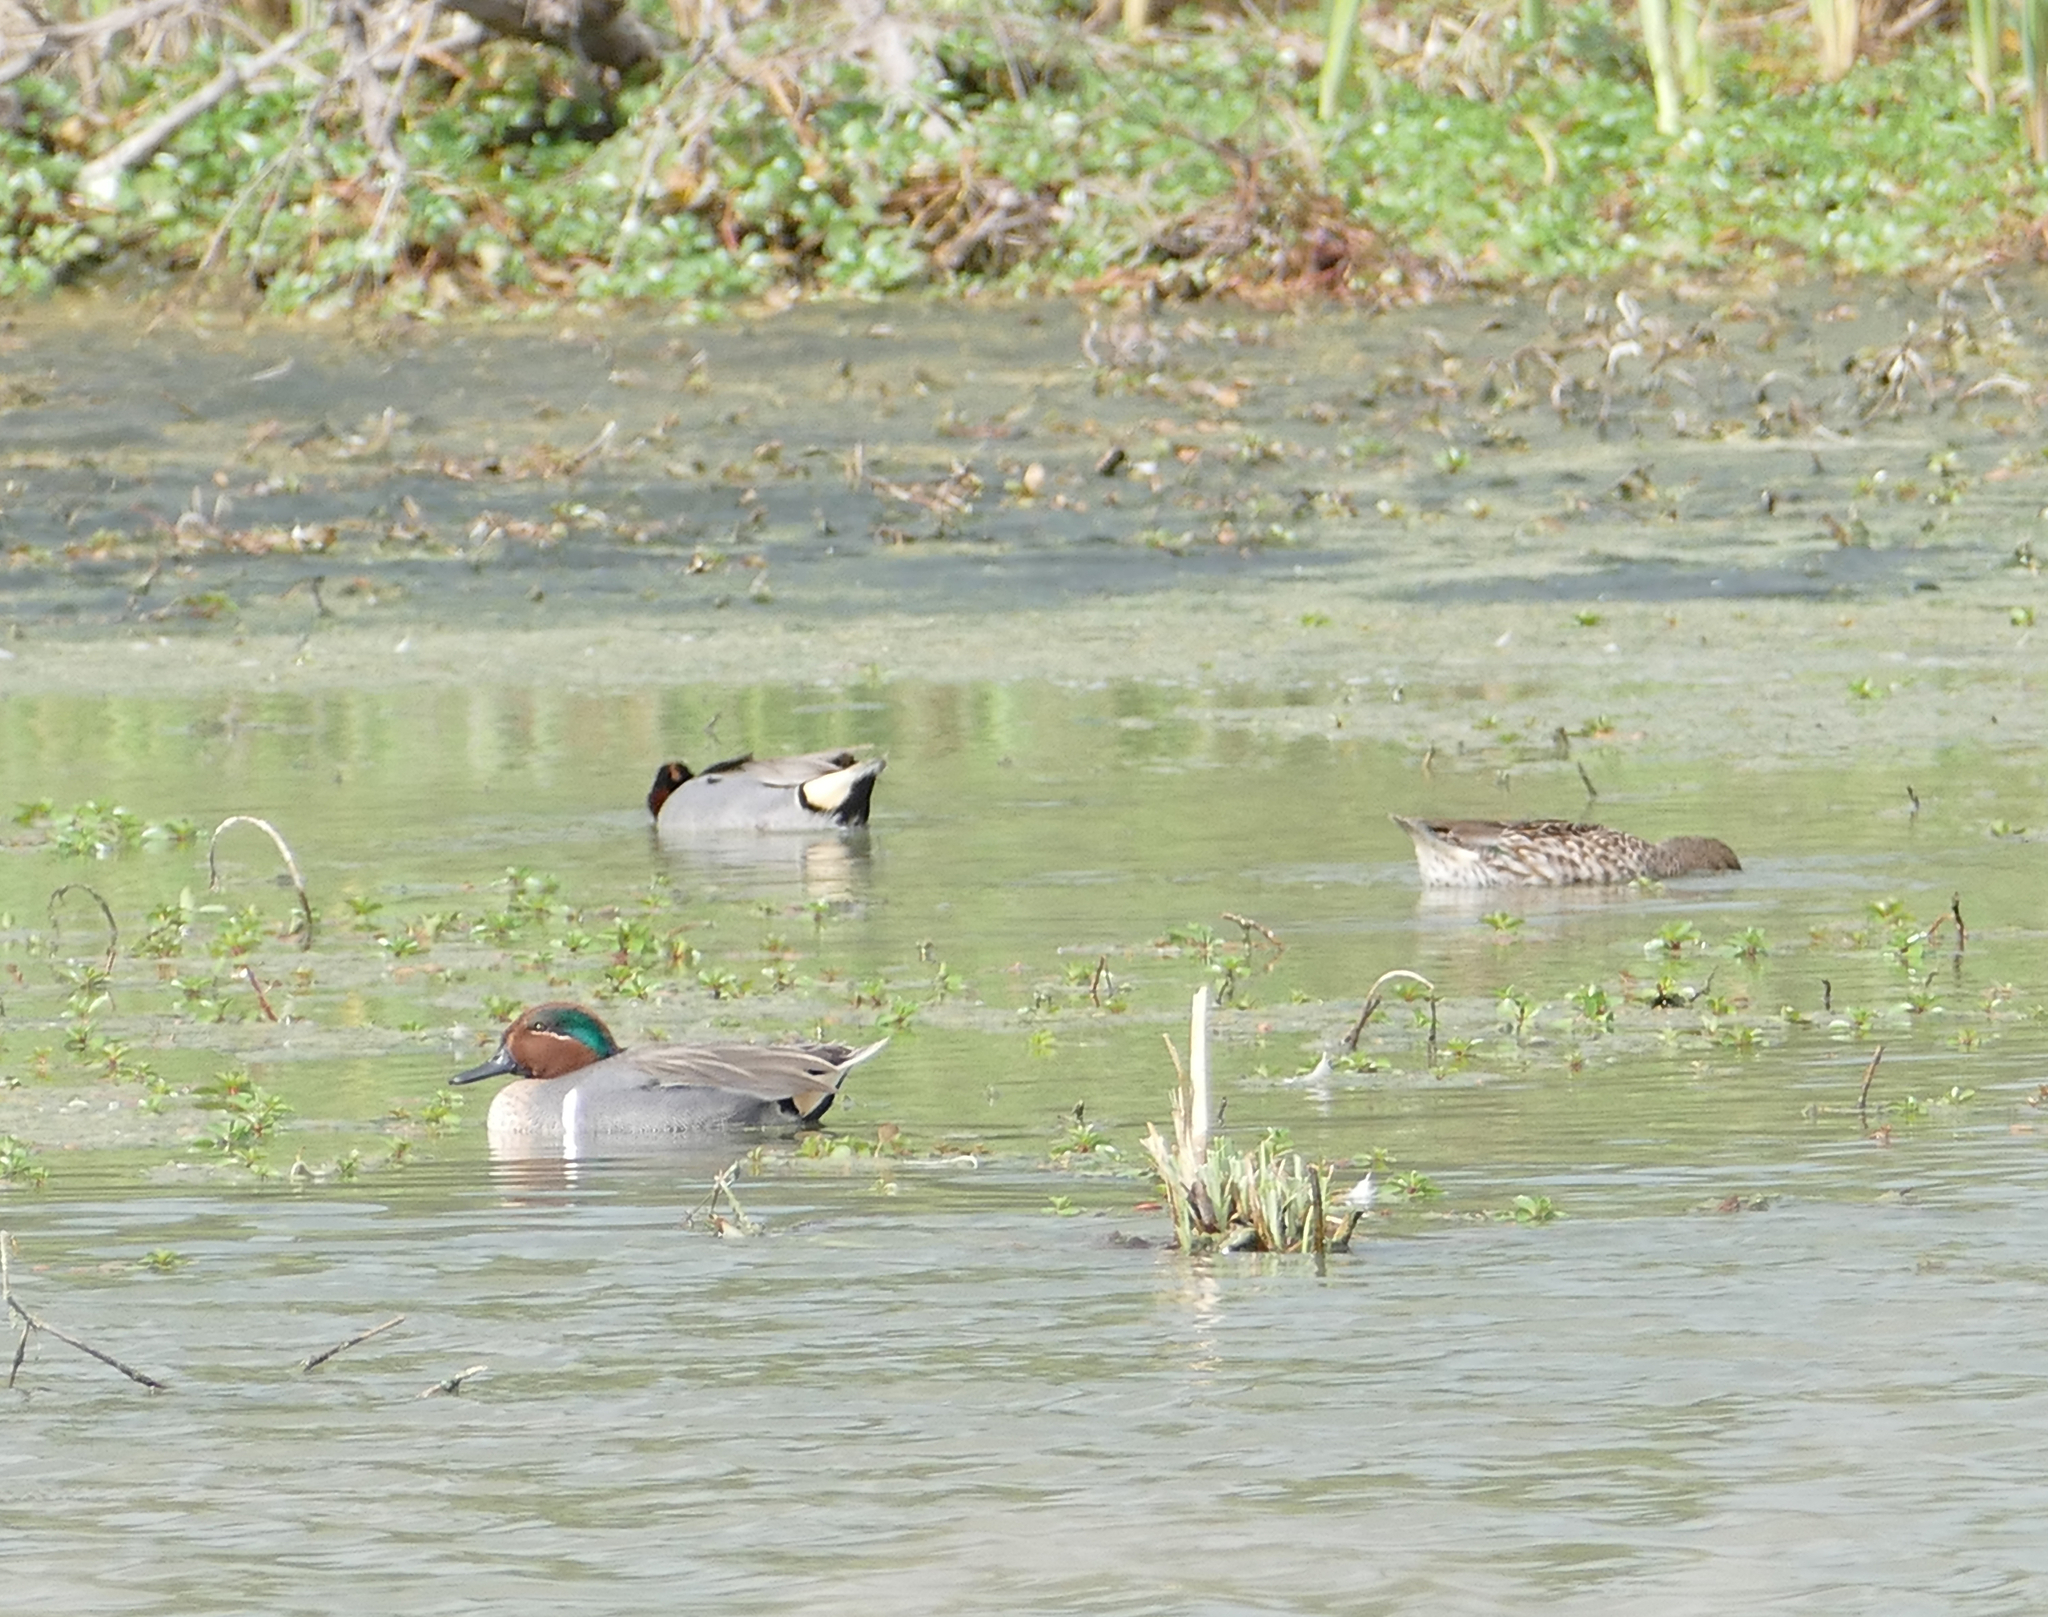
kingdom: Animalia
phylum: Chordata
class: Aves
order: Anseriformes
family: Anatidae
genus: Anas
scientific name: Anas crecca
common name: Eurasian teal
